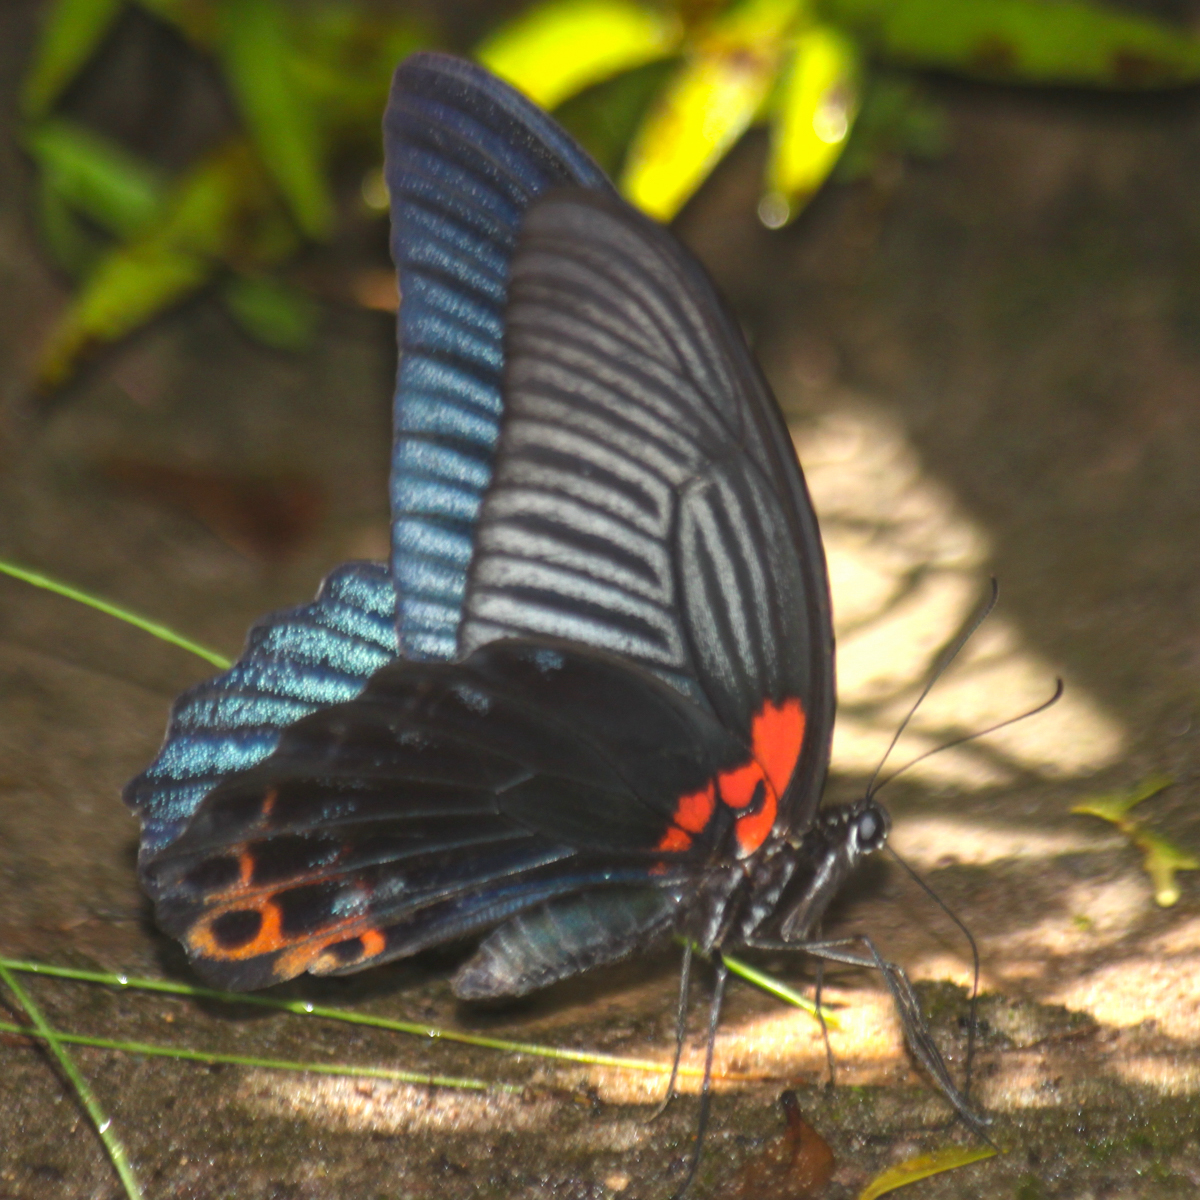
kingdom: Animalia
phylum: Arthropoda
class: Insecta
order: Lepidoptera
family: Papilionidae
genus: Papilio
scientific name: Papilio memnon
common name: Great mormon
